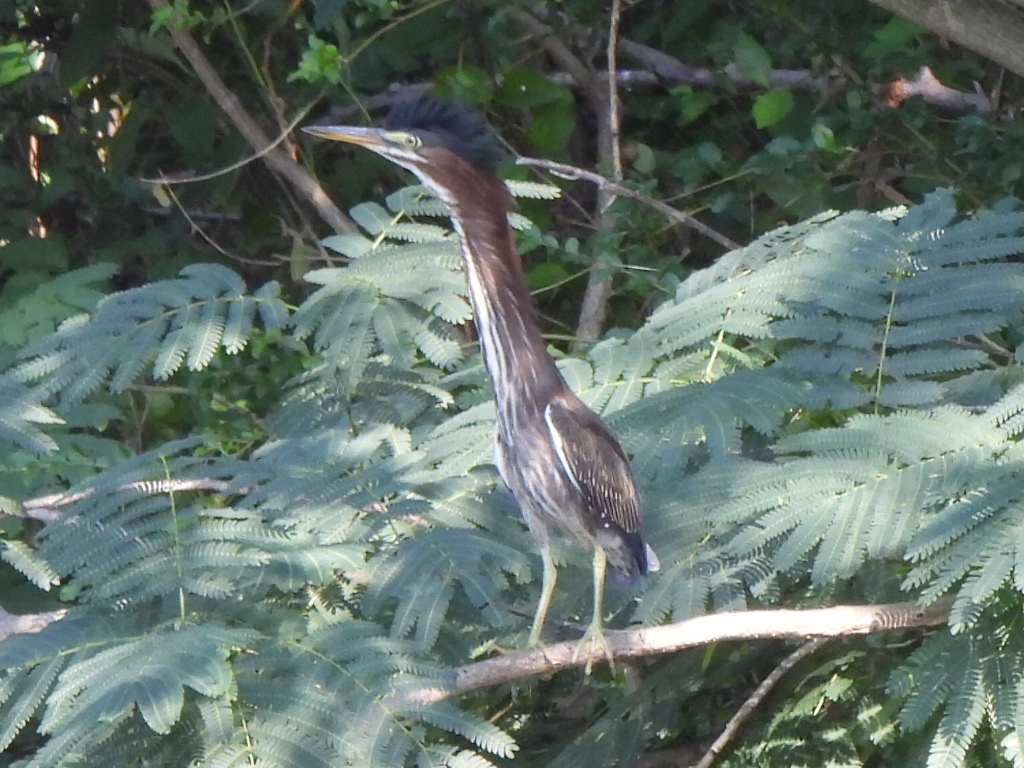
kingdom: Animalia
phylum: Chordata
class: Aves
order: Pelecaniformes
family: Ardeidae
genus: Butorides
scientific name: Butorides virescens
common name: Green heron
